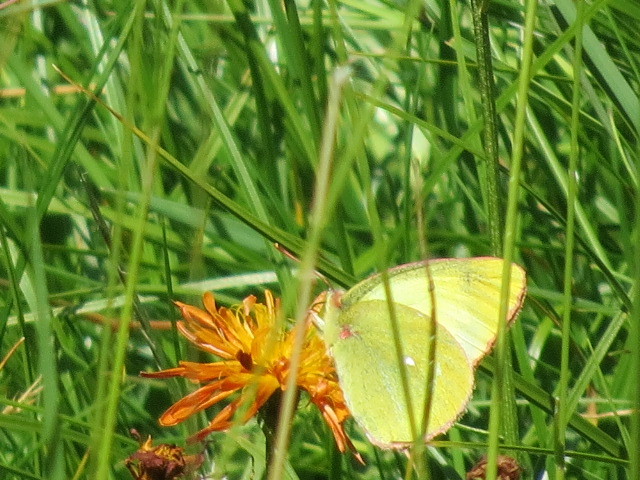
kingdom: Animalia
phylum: Arthropoda
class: Insecta
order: Lepidoptera
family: Pieridae
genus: Colias
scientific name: Colias palaeno
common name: Moorland clouded yellow
